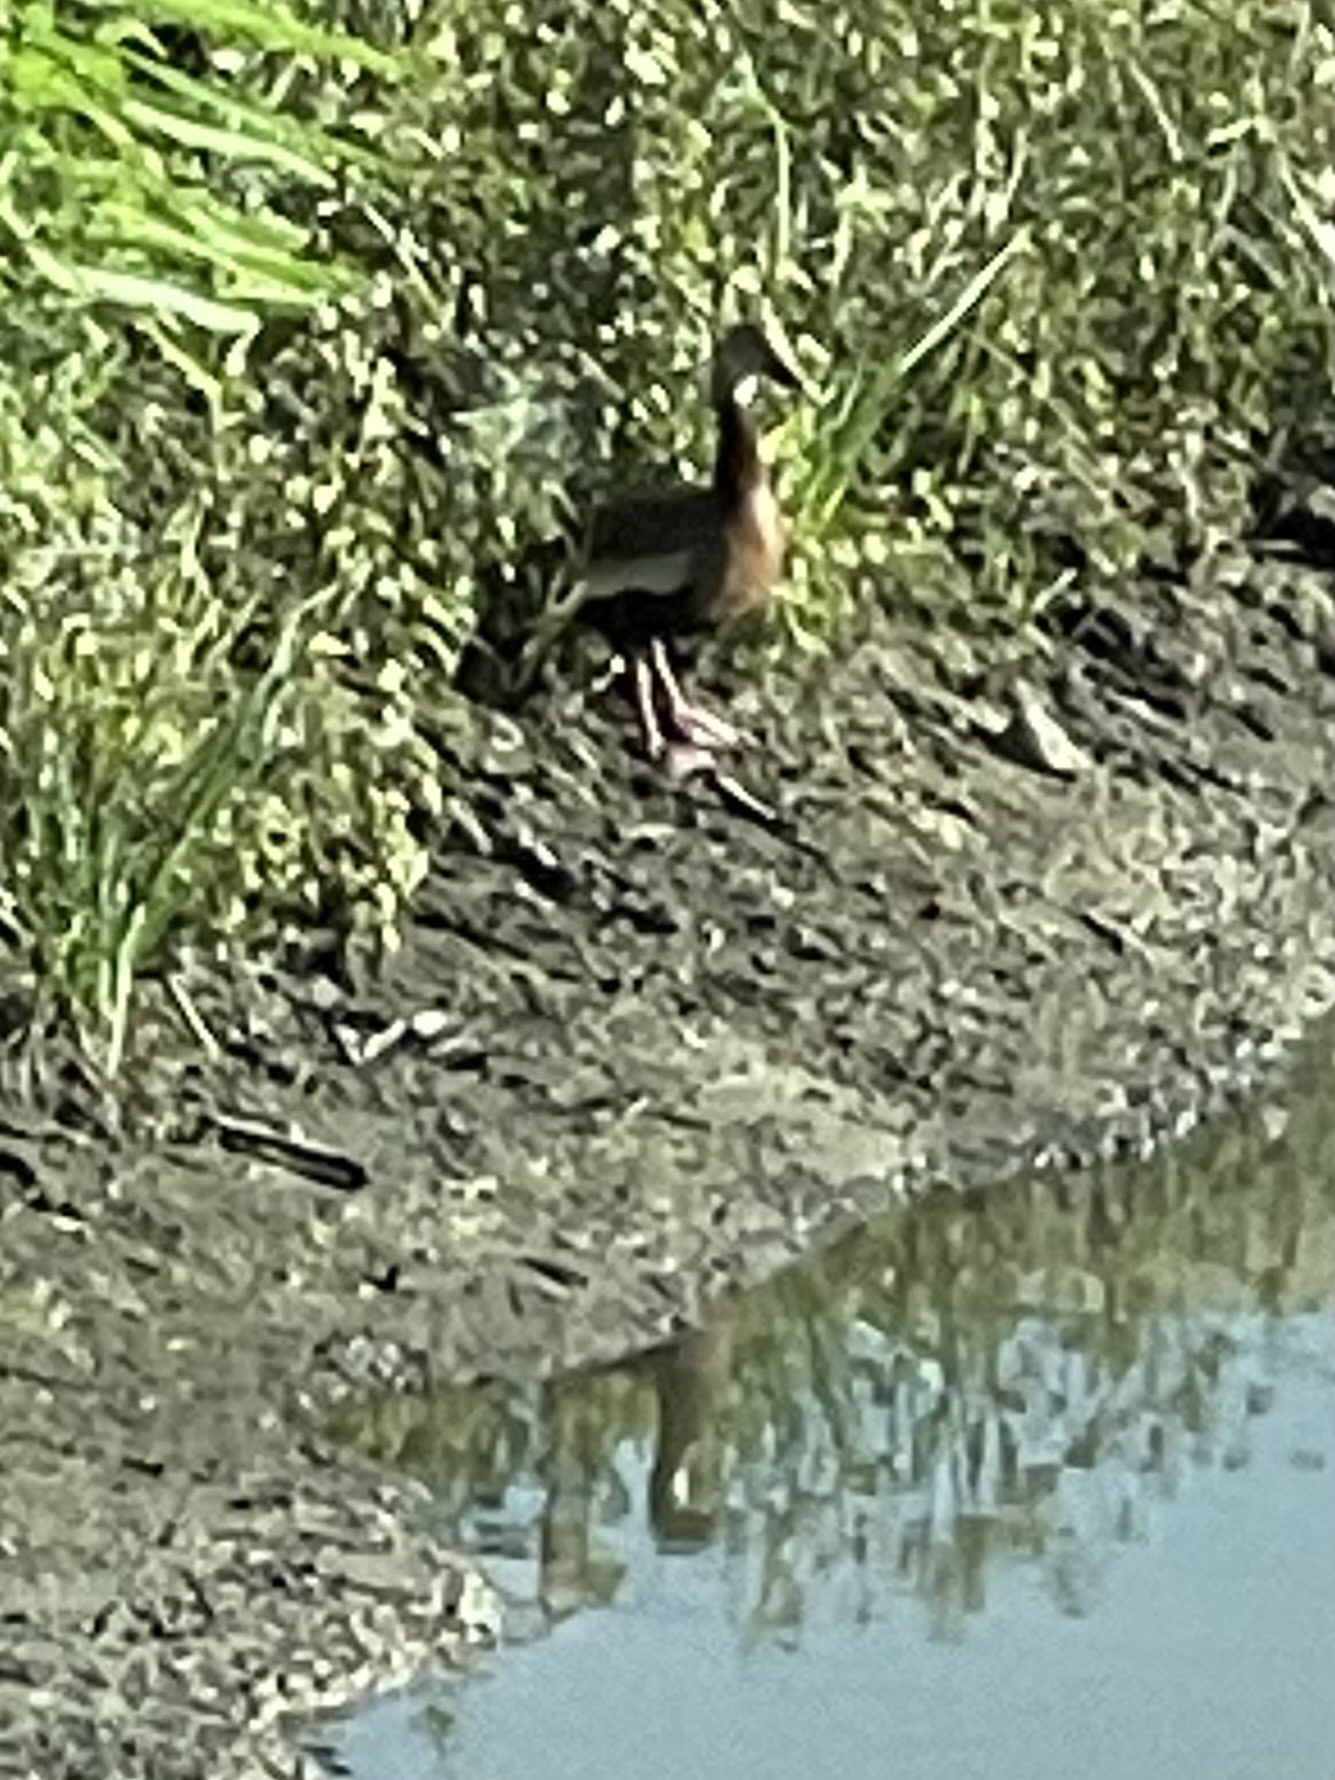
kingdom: Animalia
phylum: Chordata
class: Aves
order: Anseriformes
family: Anatidae
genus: Dendrocygna
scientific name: Dendrocygna autumnalis
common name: Black-bellied whistling duck
